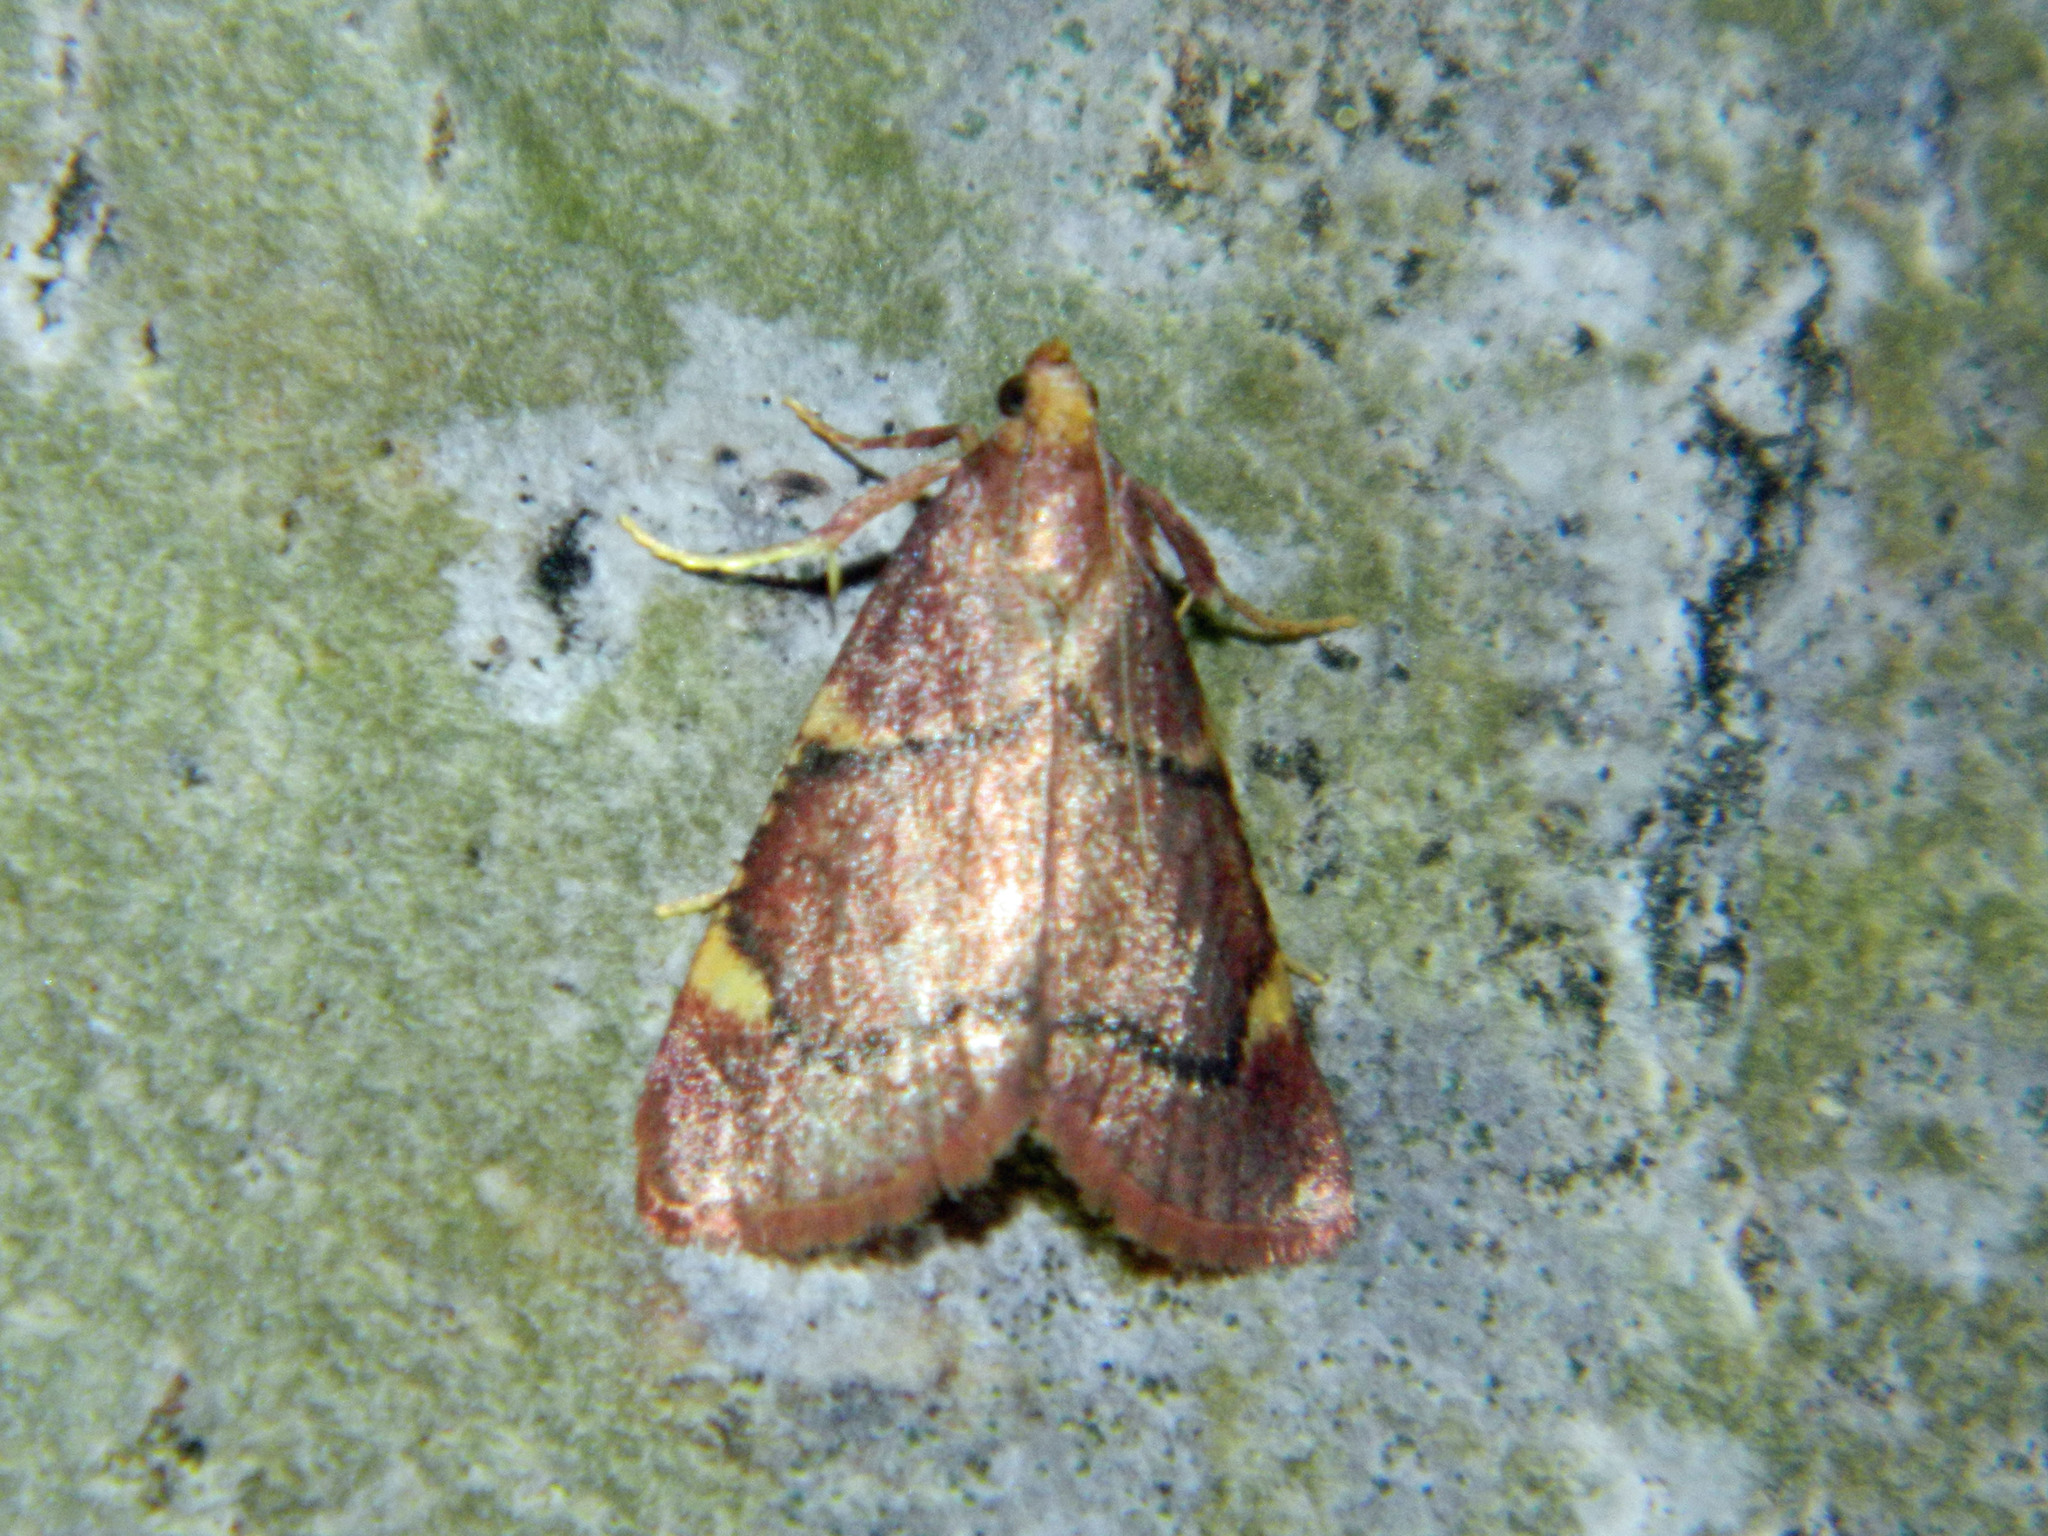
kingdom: Animalia
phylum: Arthropoda
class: Insecta
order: Lepidoptera
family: Pyralidae
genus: Hypsopygia
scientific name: Hypsopygia thymetusalis
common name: Spruce needleworm moth
